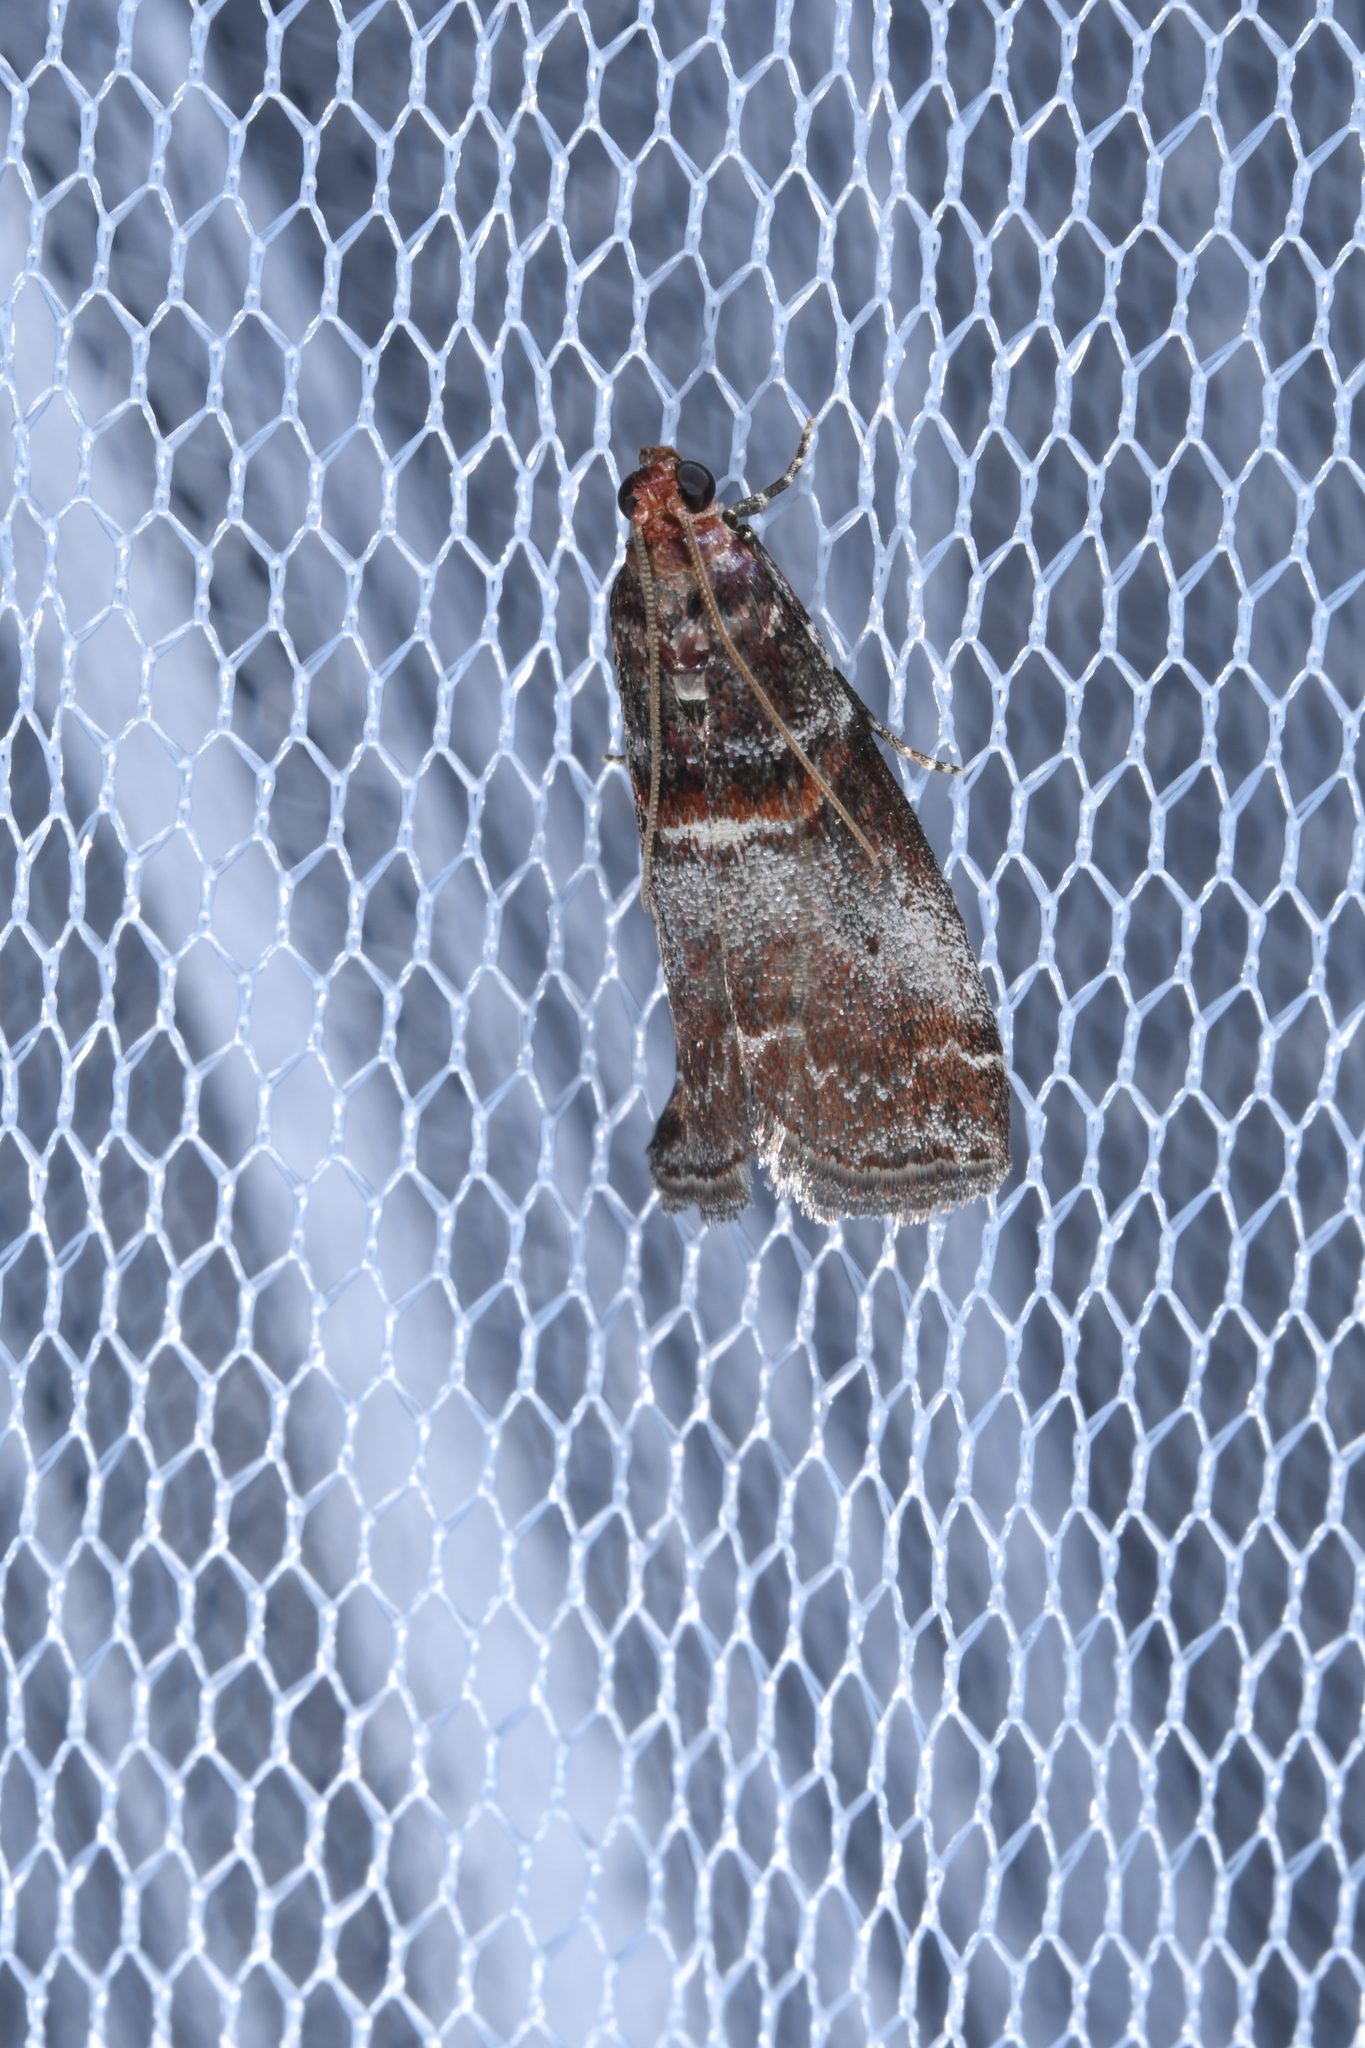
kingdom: Animalia
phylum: Arthropoda
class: Insecta
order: Lepidoptera
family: Pyralidae
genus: Acrobasis
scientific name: Acrobasis advenella
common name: Grey knot-horn
